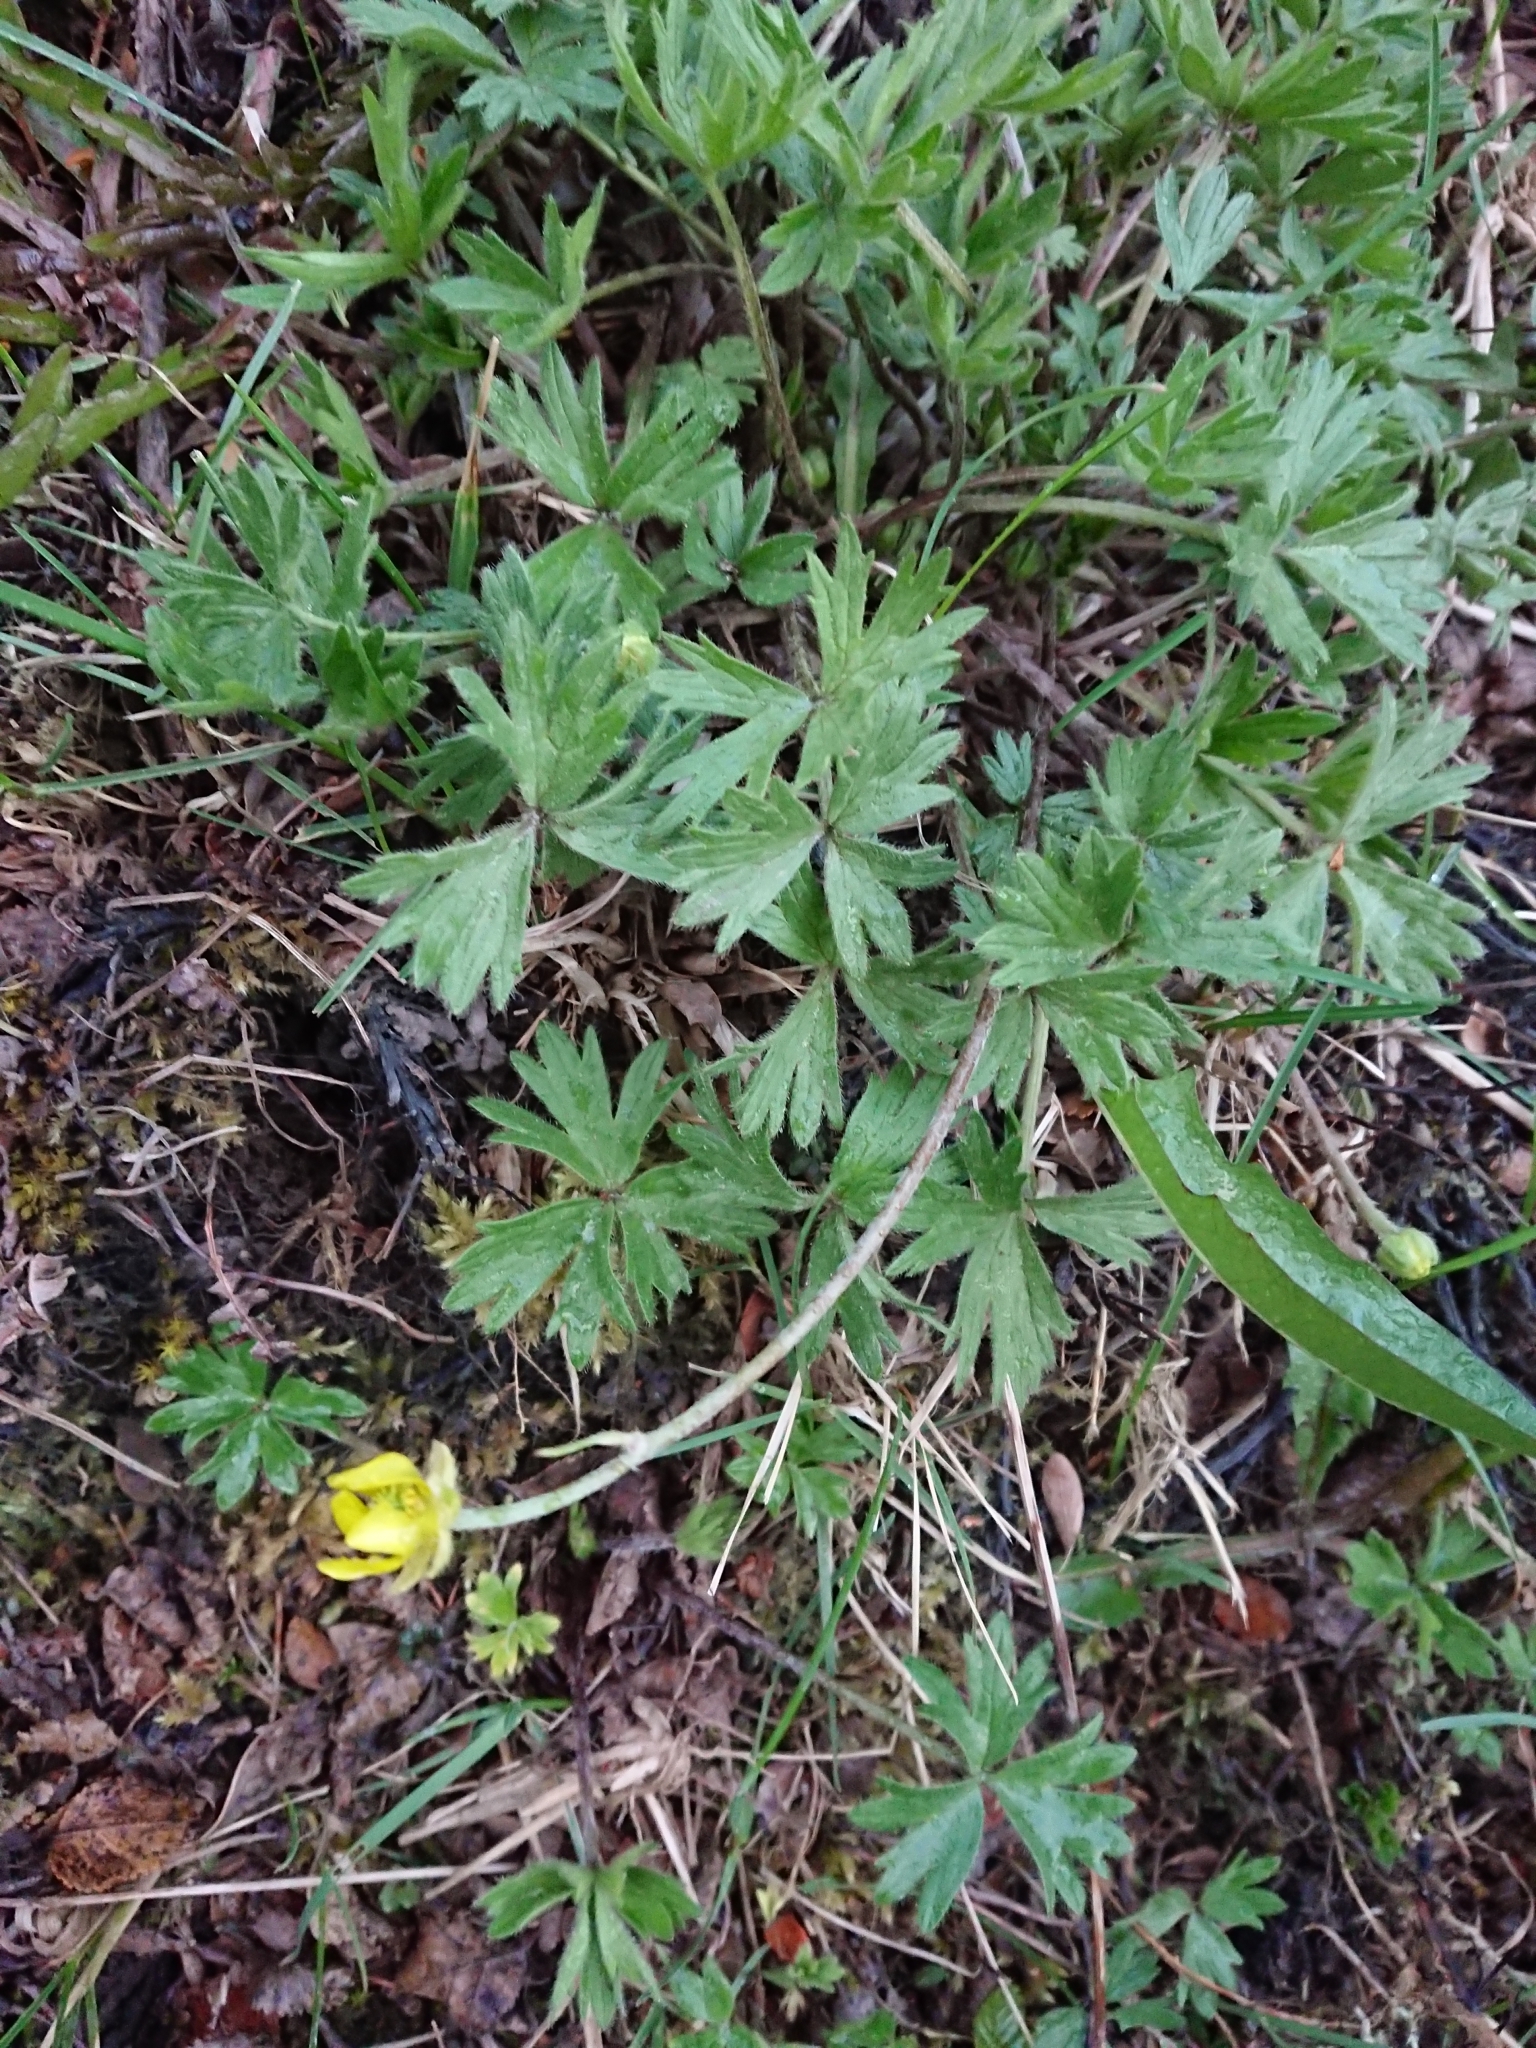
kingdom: Plantae
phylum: Tracheophyta
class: Magnoliopsida
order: Ranunculales
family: Ranunculaceae
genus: Ranunculus
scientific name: Ranunculus peduncularis
